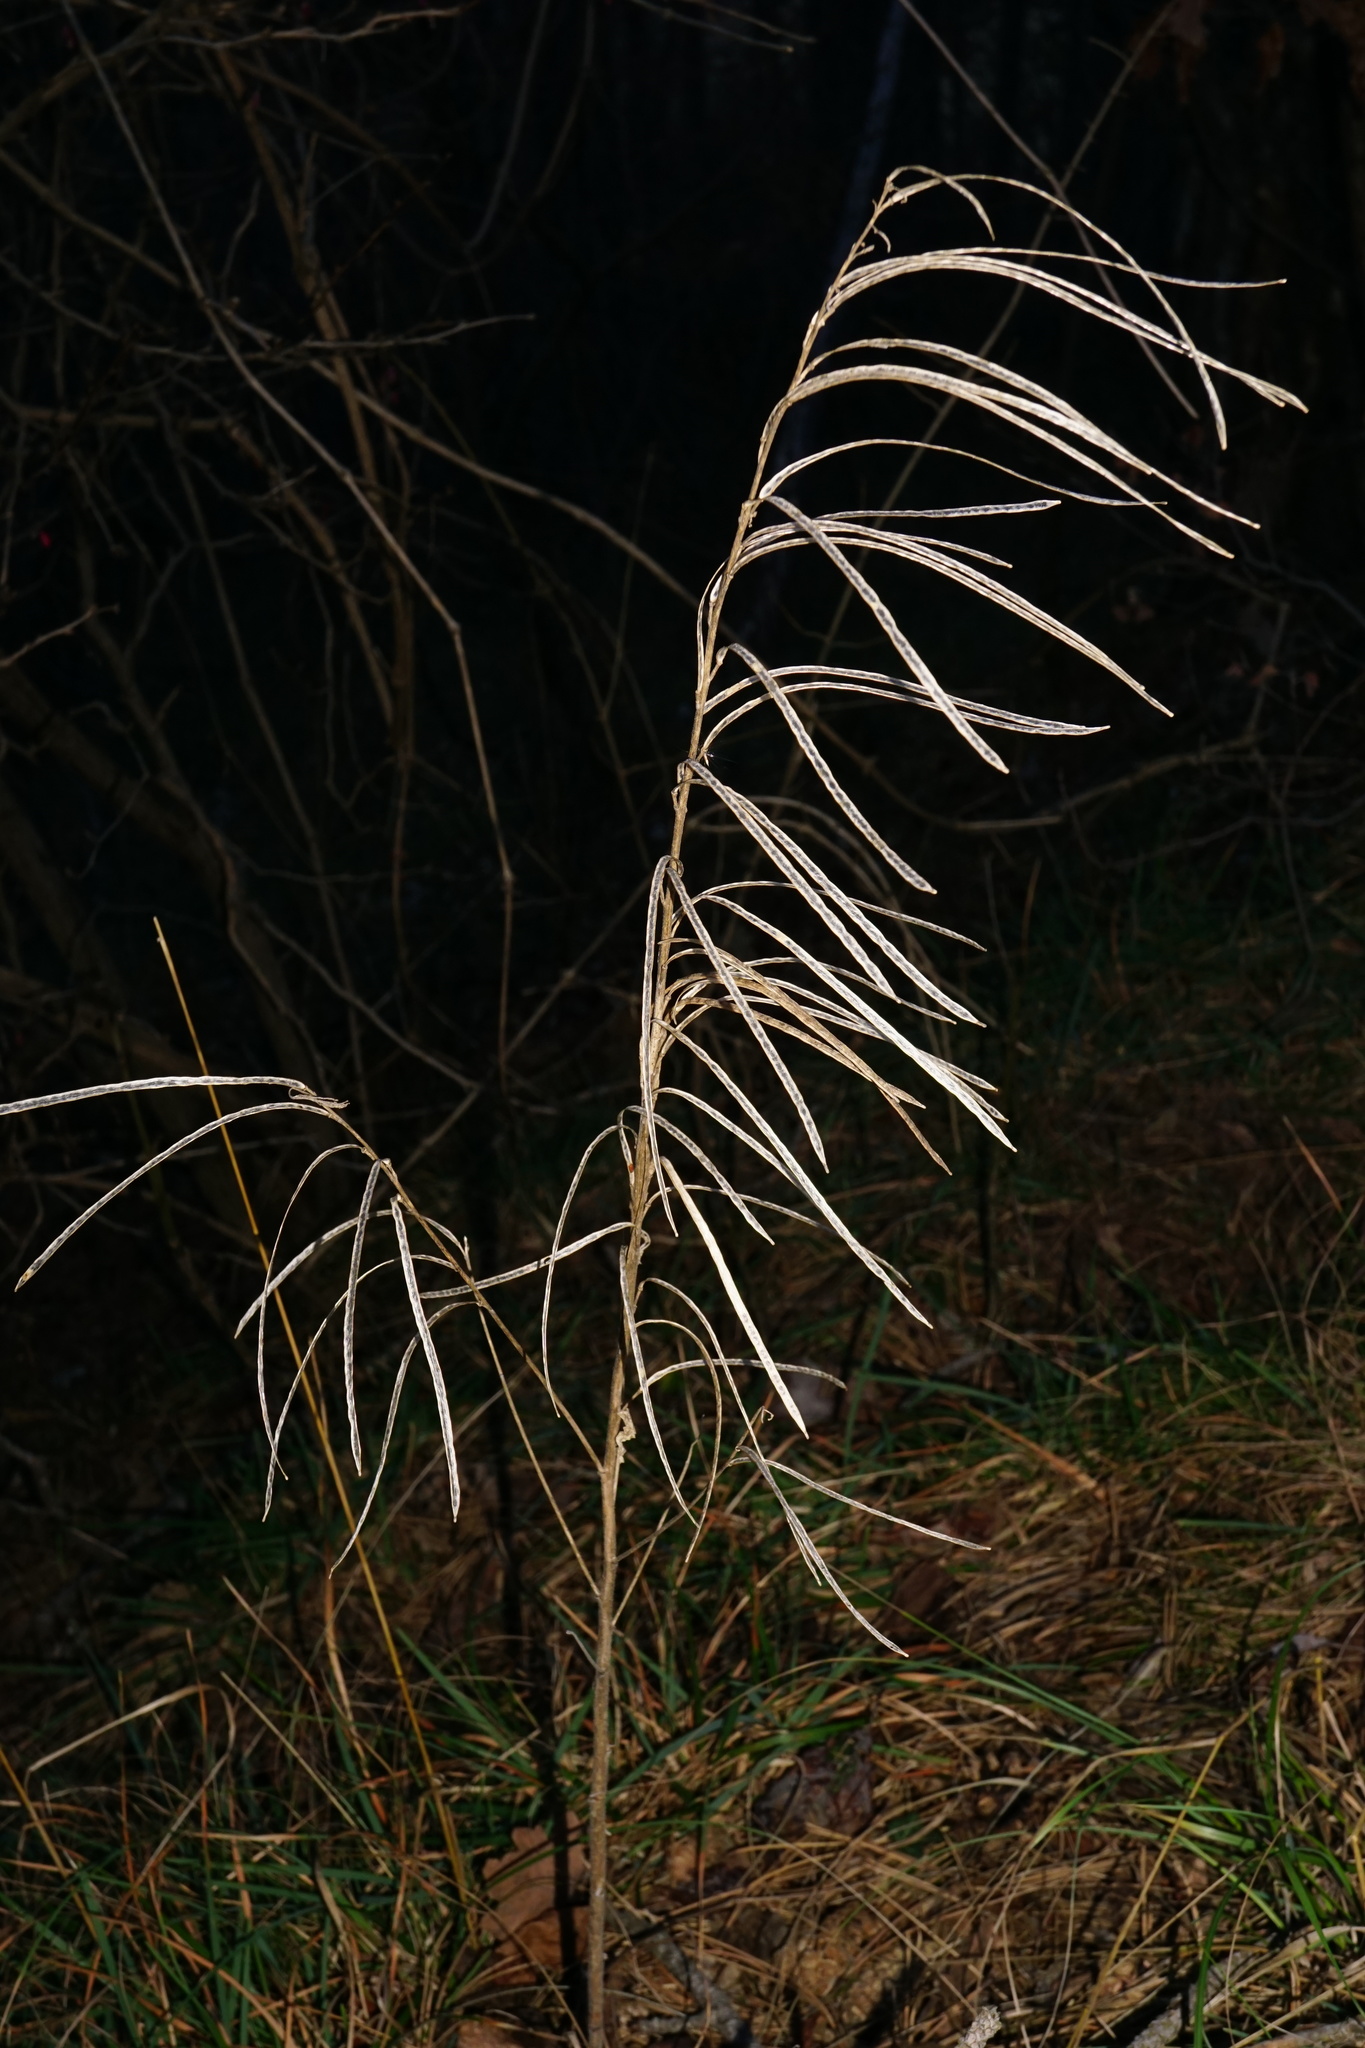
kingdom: Plantae
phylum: Tracheophyta
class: Magnoliopsida
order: Brassicales
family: Brassicaceae
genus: Pseudoturritis
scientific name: Pseudoturritis turrita
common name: Tower cress
